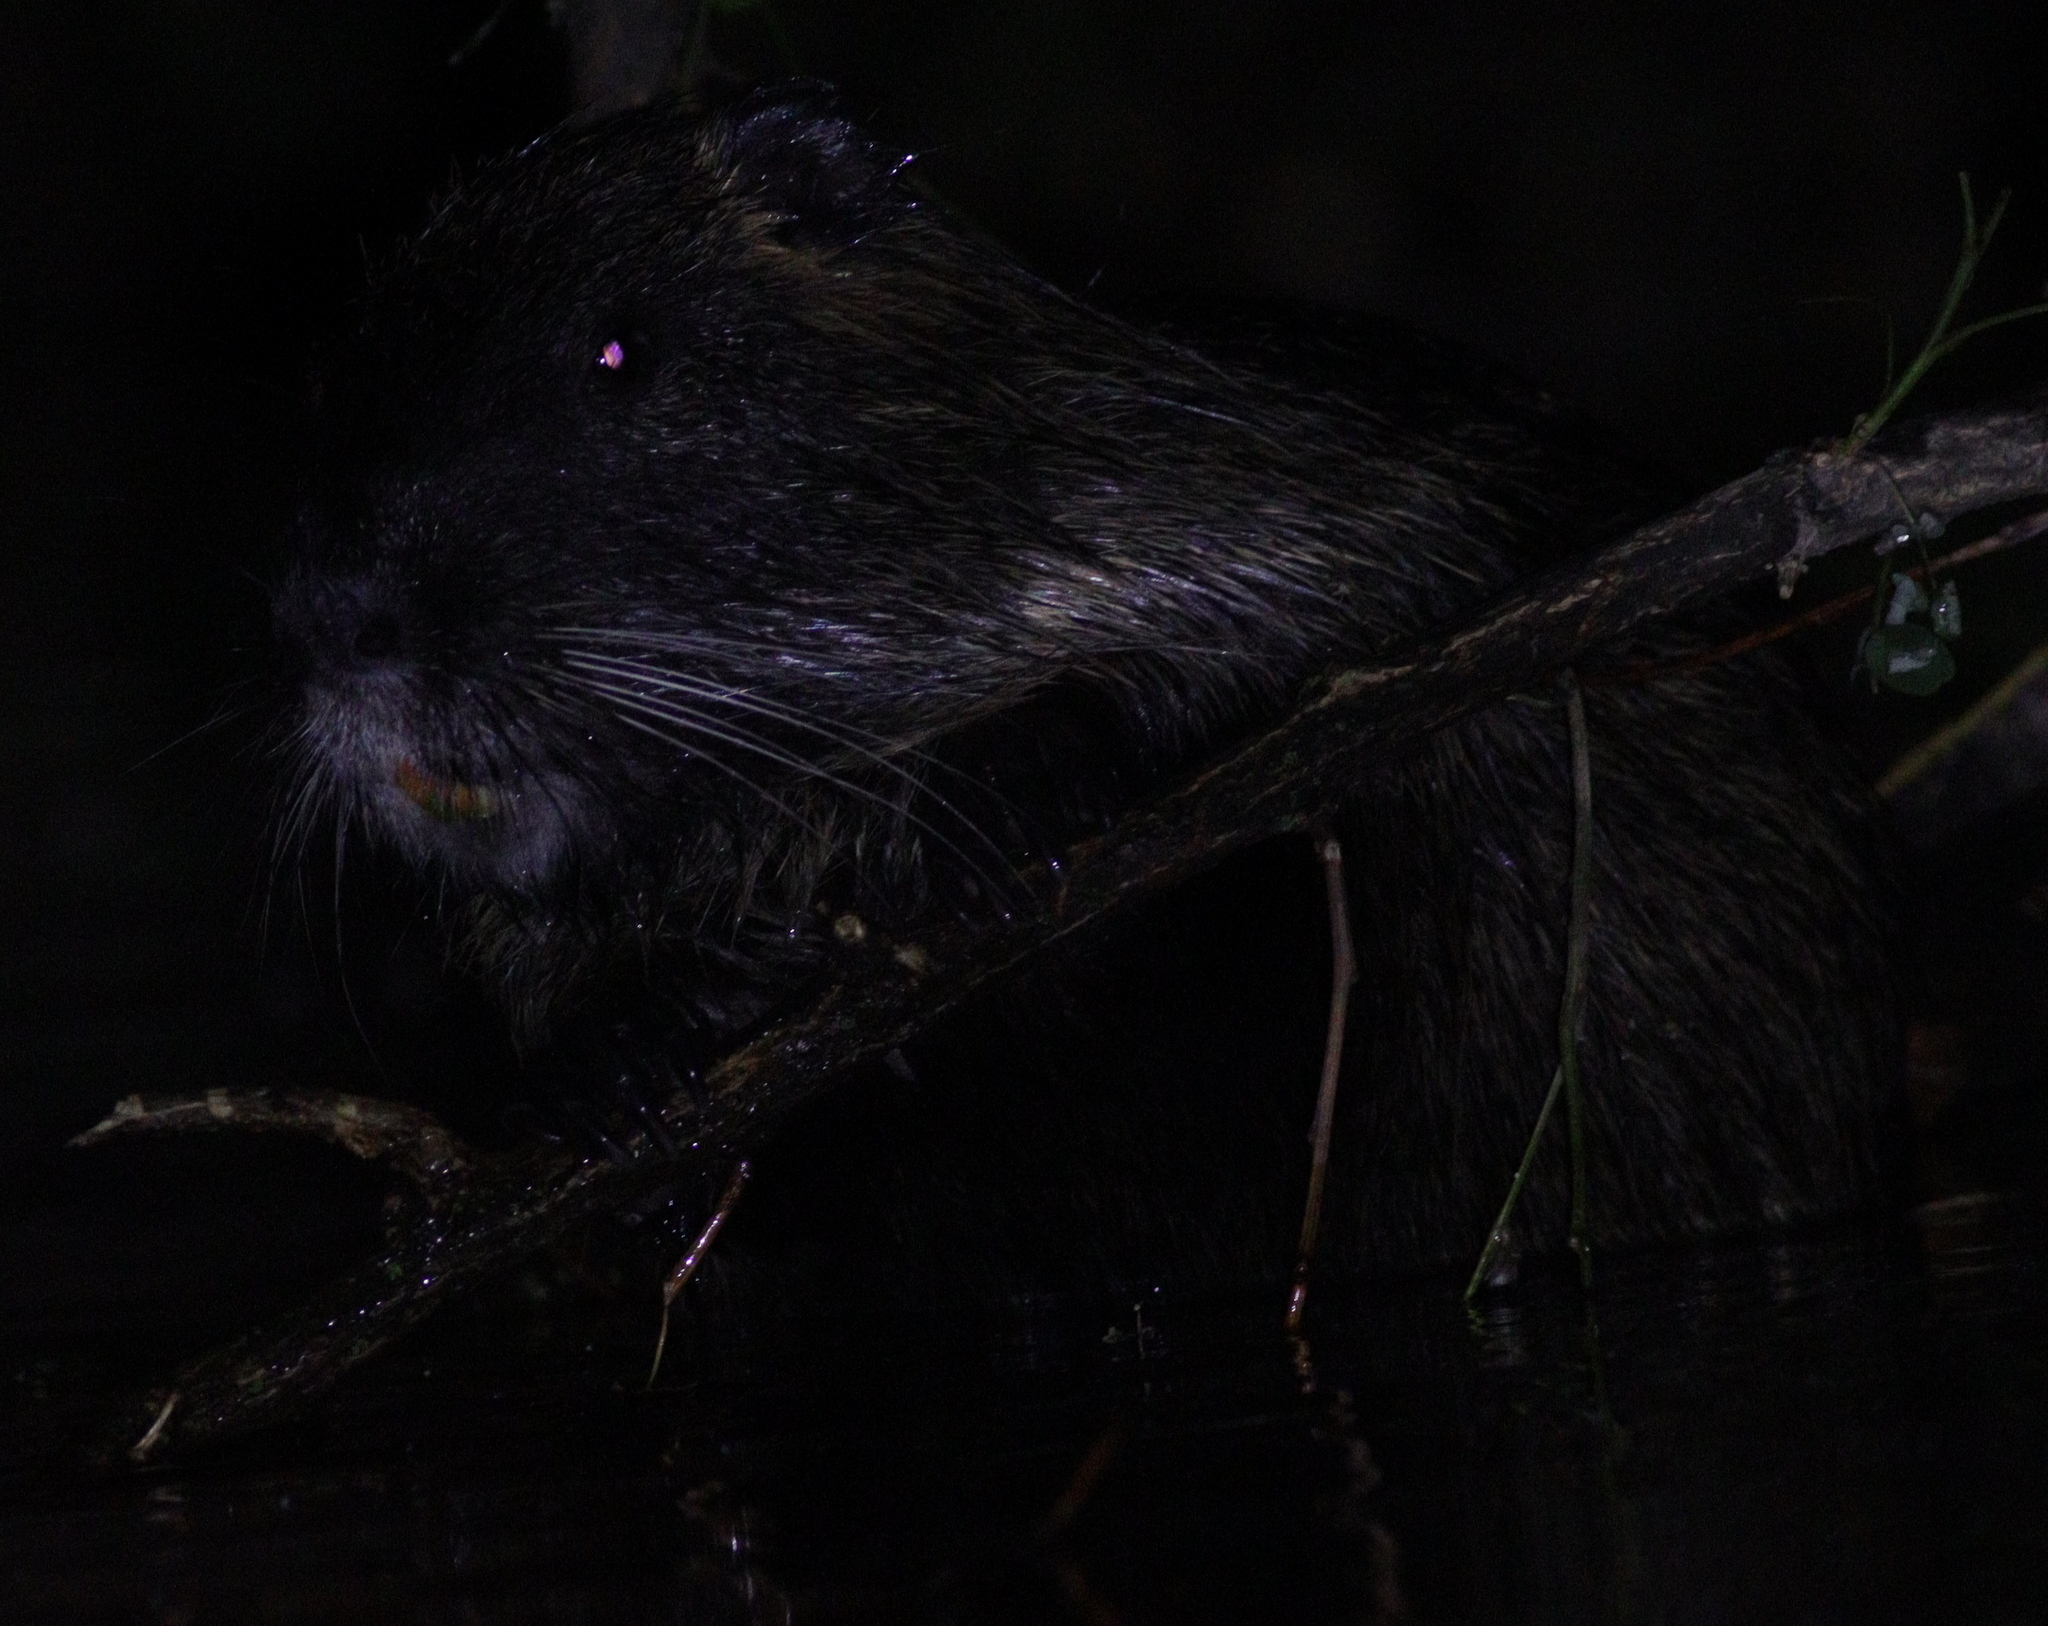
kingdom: Animalia
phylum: Chordata
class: Mammalia
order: Rodentia
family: Myocastoridae
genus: Myocastor
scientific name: Myocastor coypus
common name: Coypu
